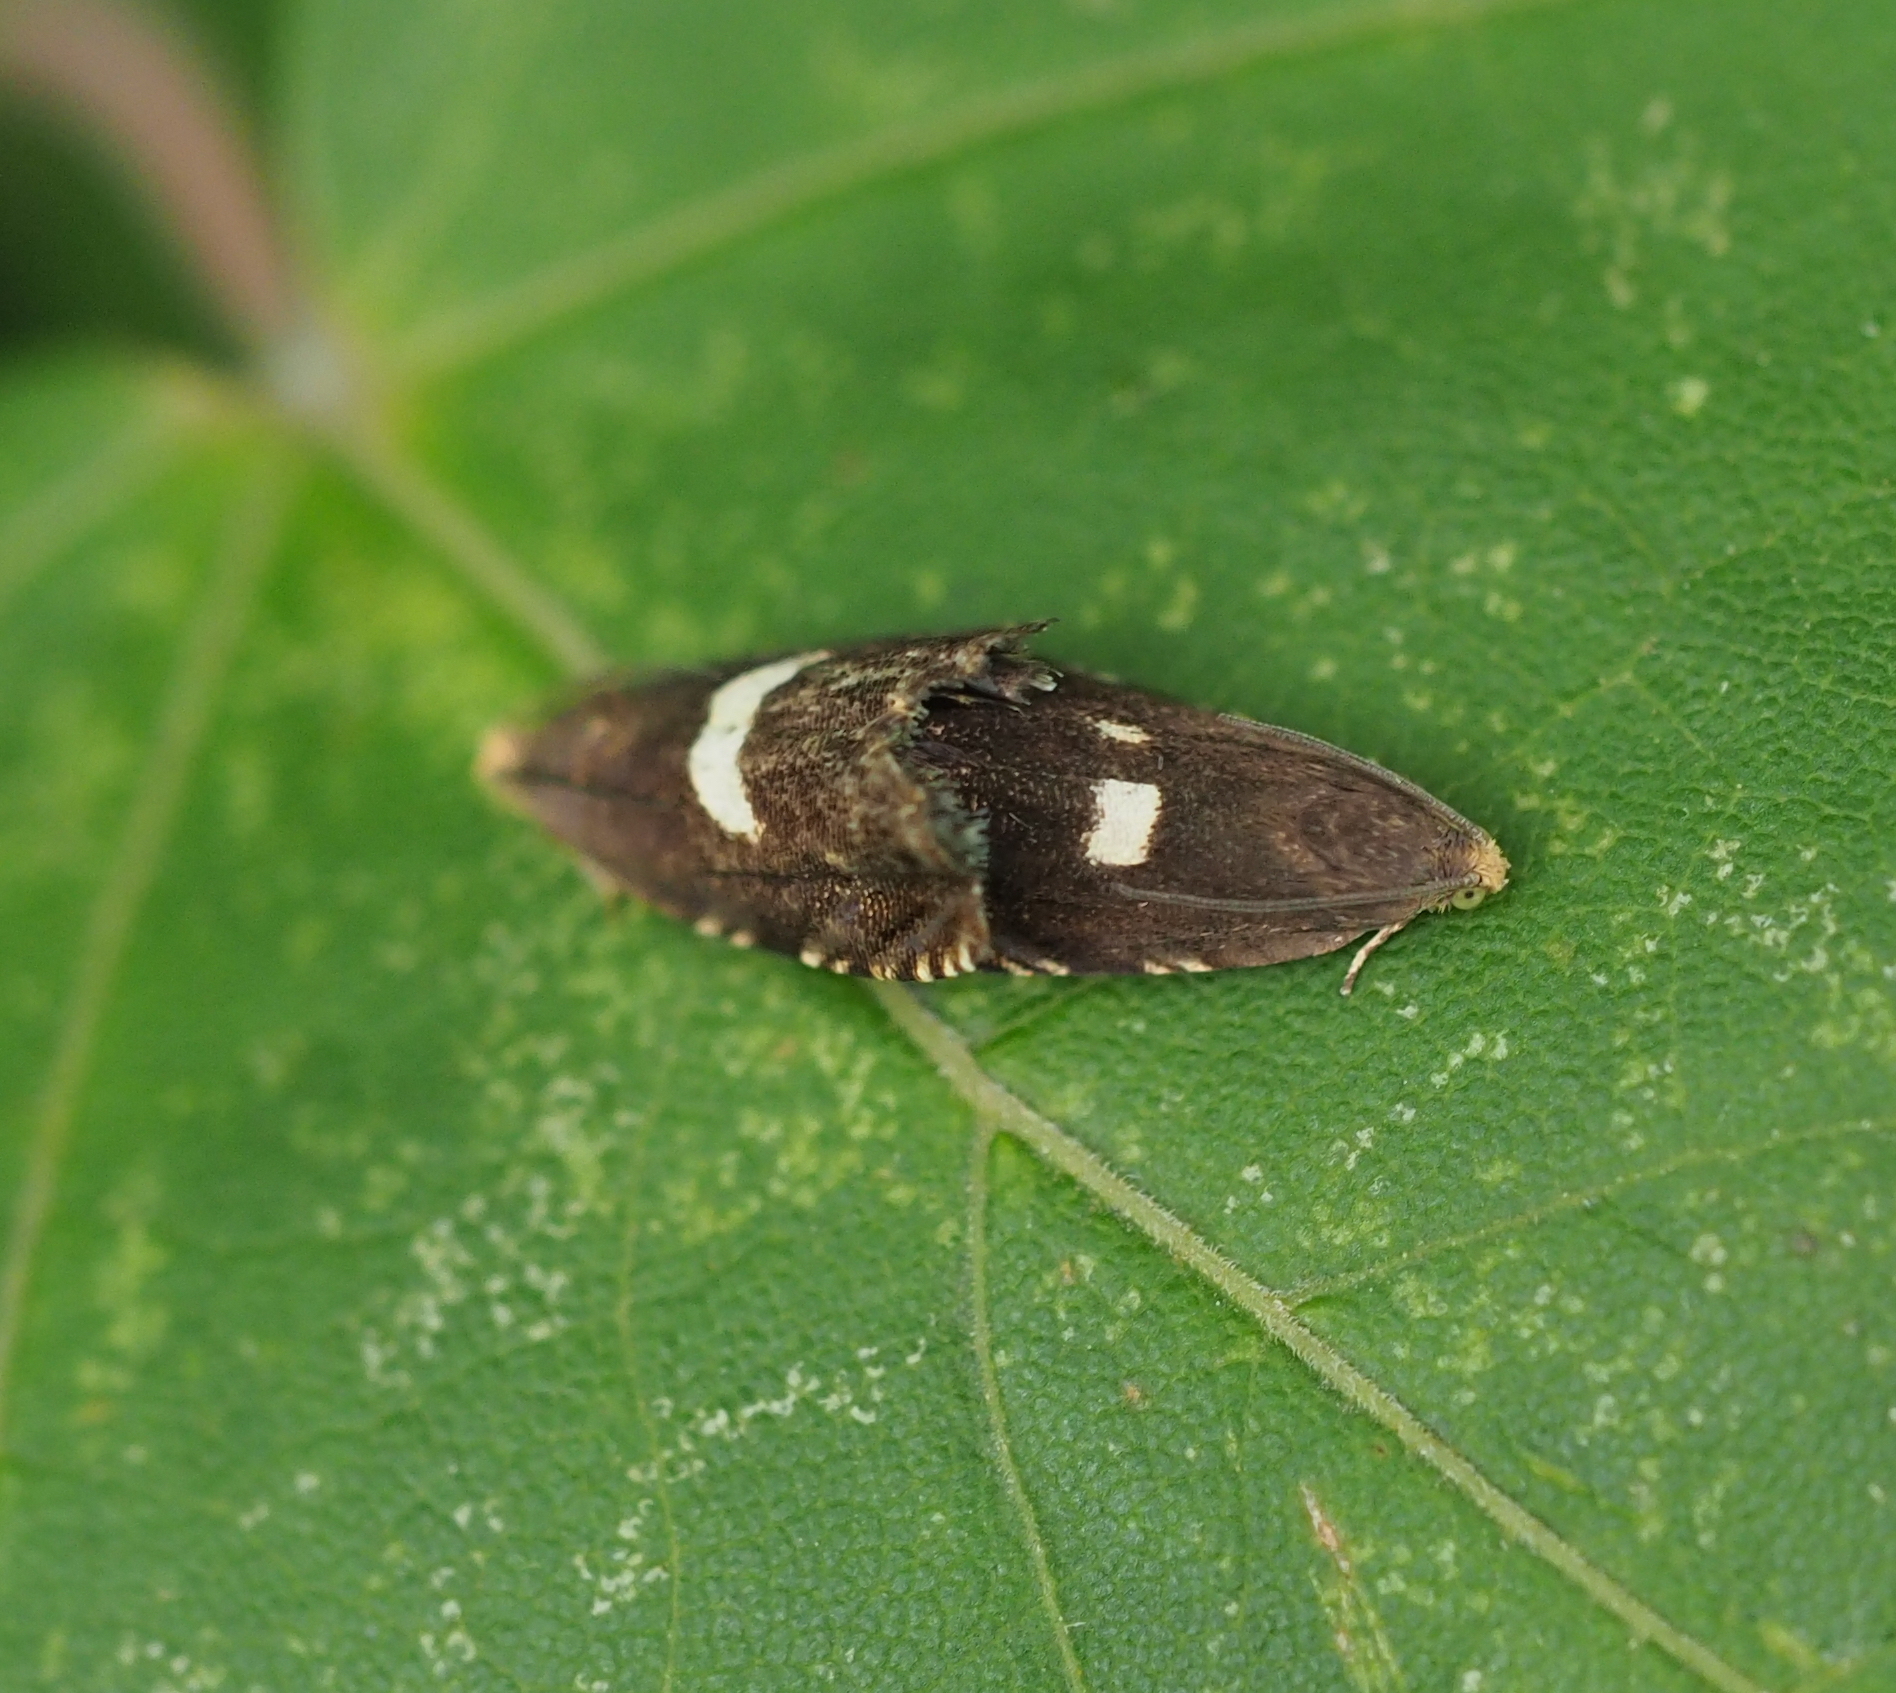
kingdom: Animalia
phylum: Arthropoda
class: Insecta
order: Lepidoptera
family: Tortricidae
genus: Cydia
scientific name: Cydia inquinatana
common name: Scarce maple piercer
